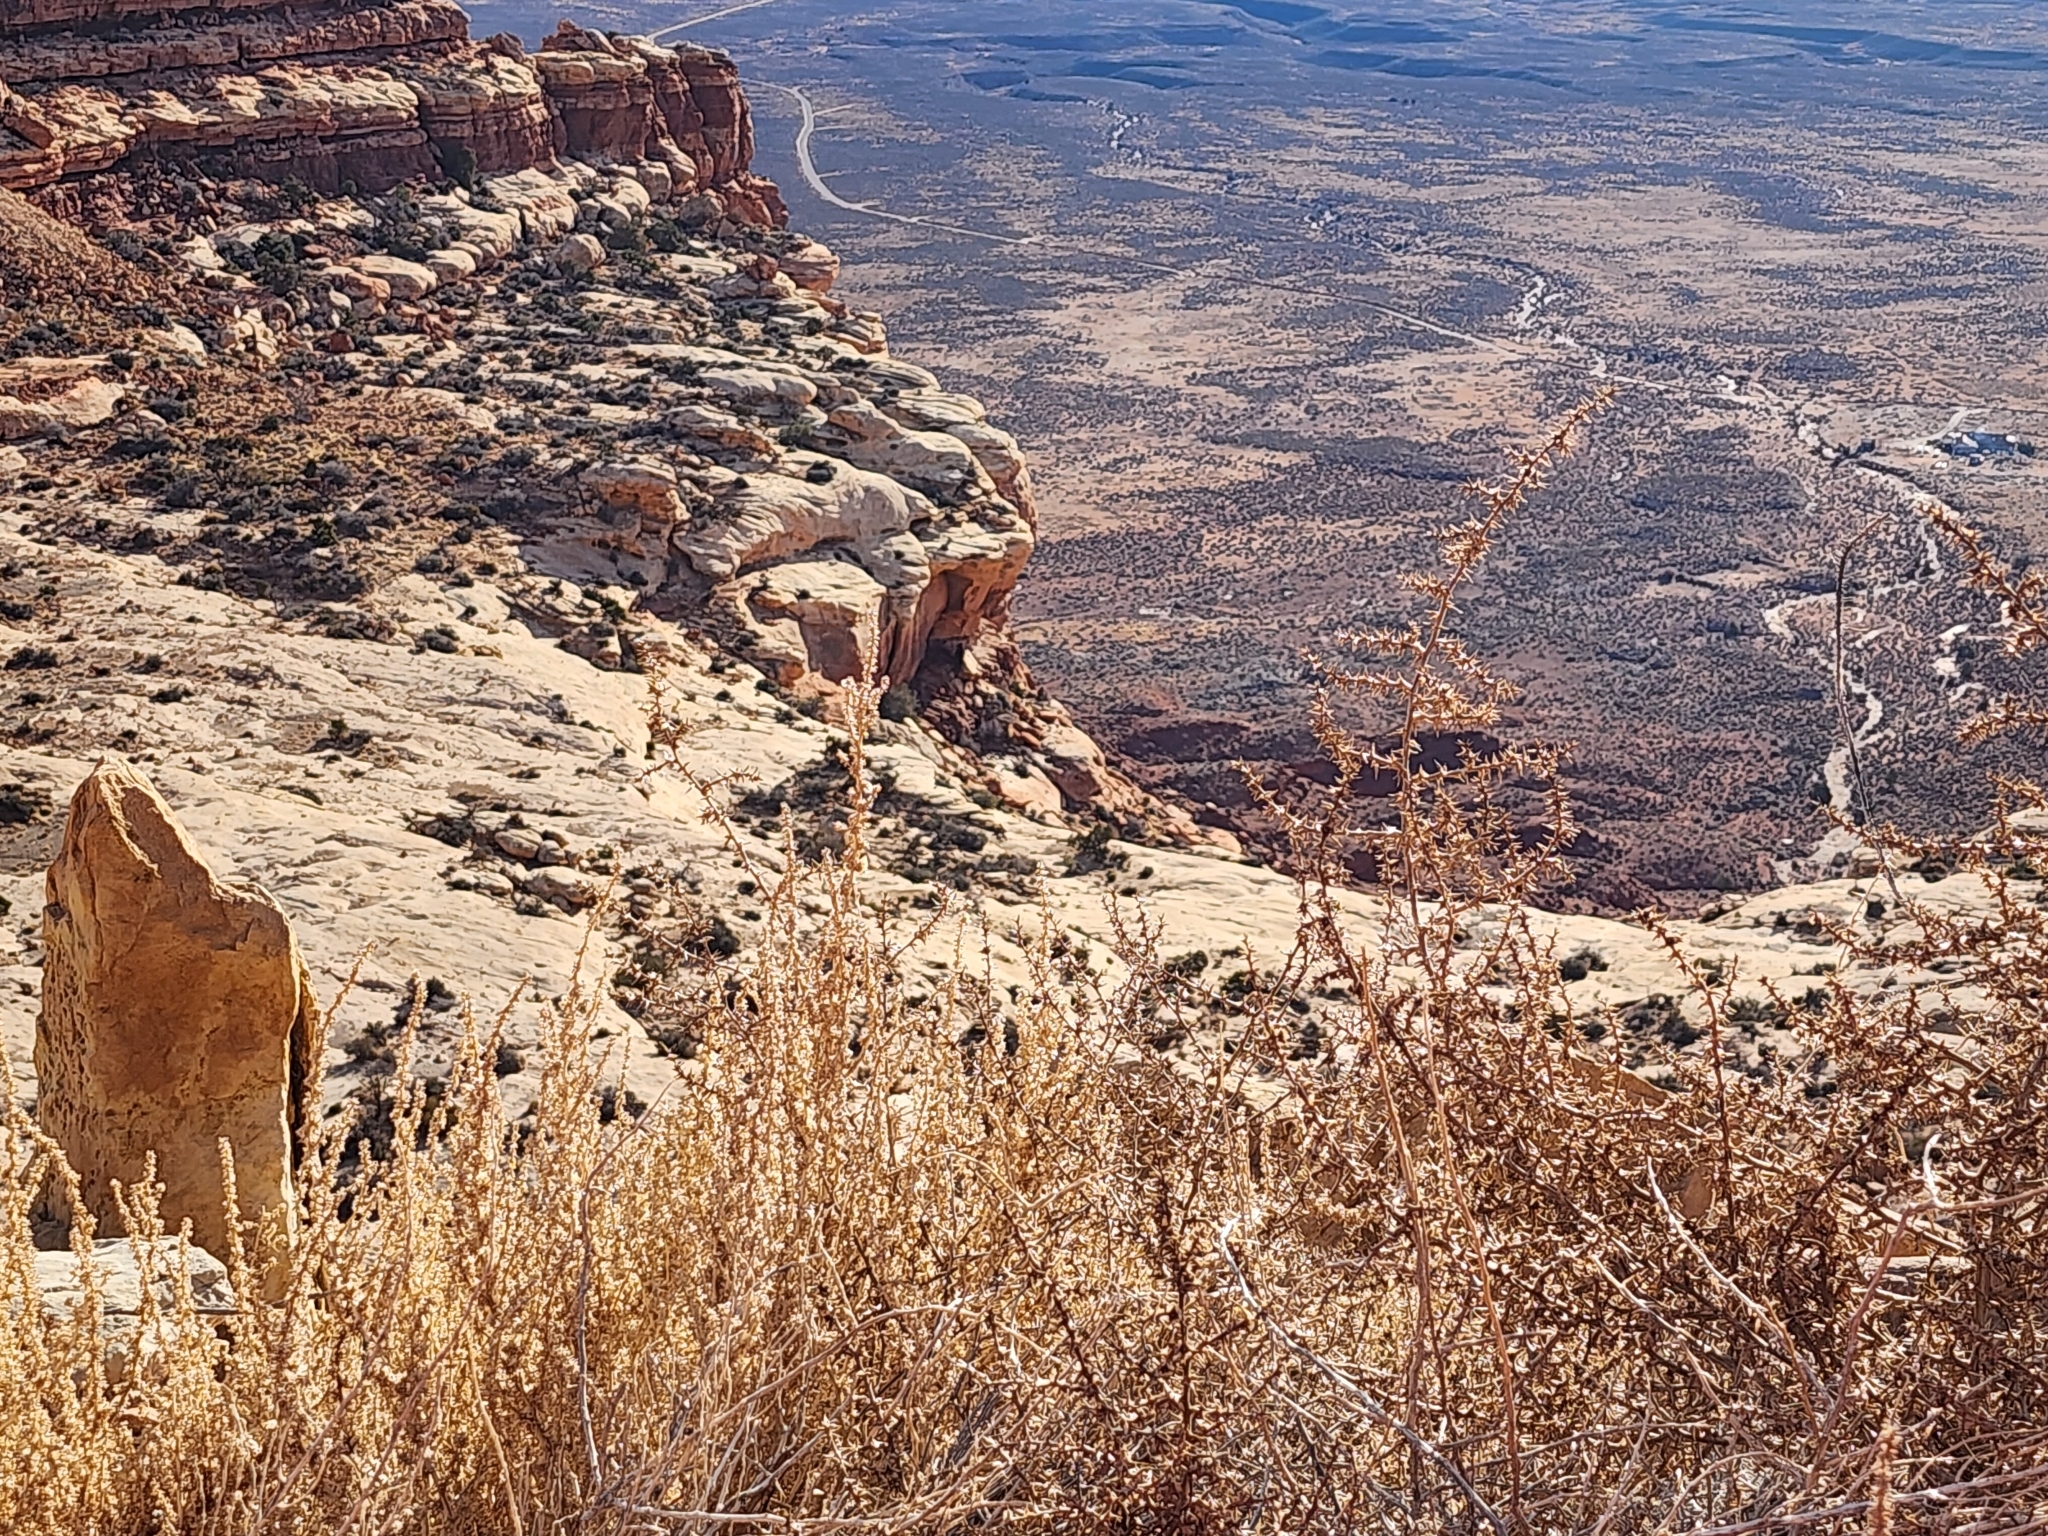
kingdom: Plantae
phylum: Tracheophyta
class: Magnoliopsida
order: Caryophyllales
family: Amaranthaceae
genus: Salsola
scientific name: Salsola tragus
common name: Prickly russian thistle
